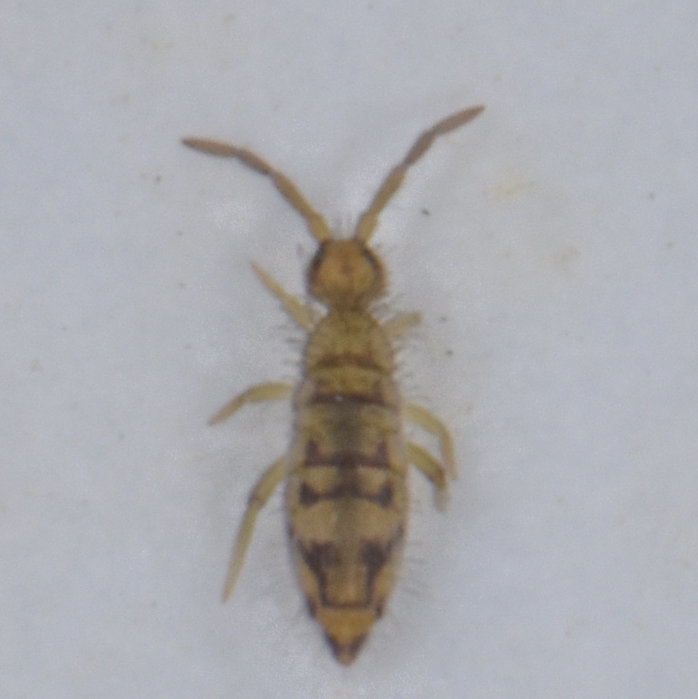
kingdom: Animalia
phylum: Arthropoda
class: Collembola
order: Entomobryomorpha
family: Entomobryidae
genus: Entomobrya
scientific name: Entomobrya nivalis
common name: Cosmopolitan springtail
